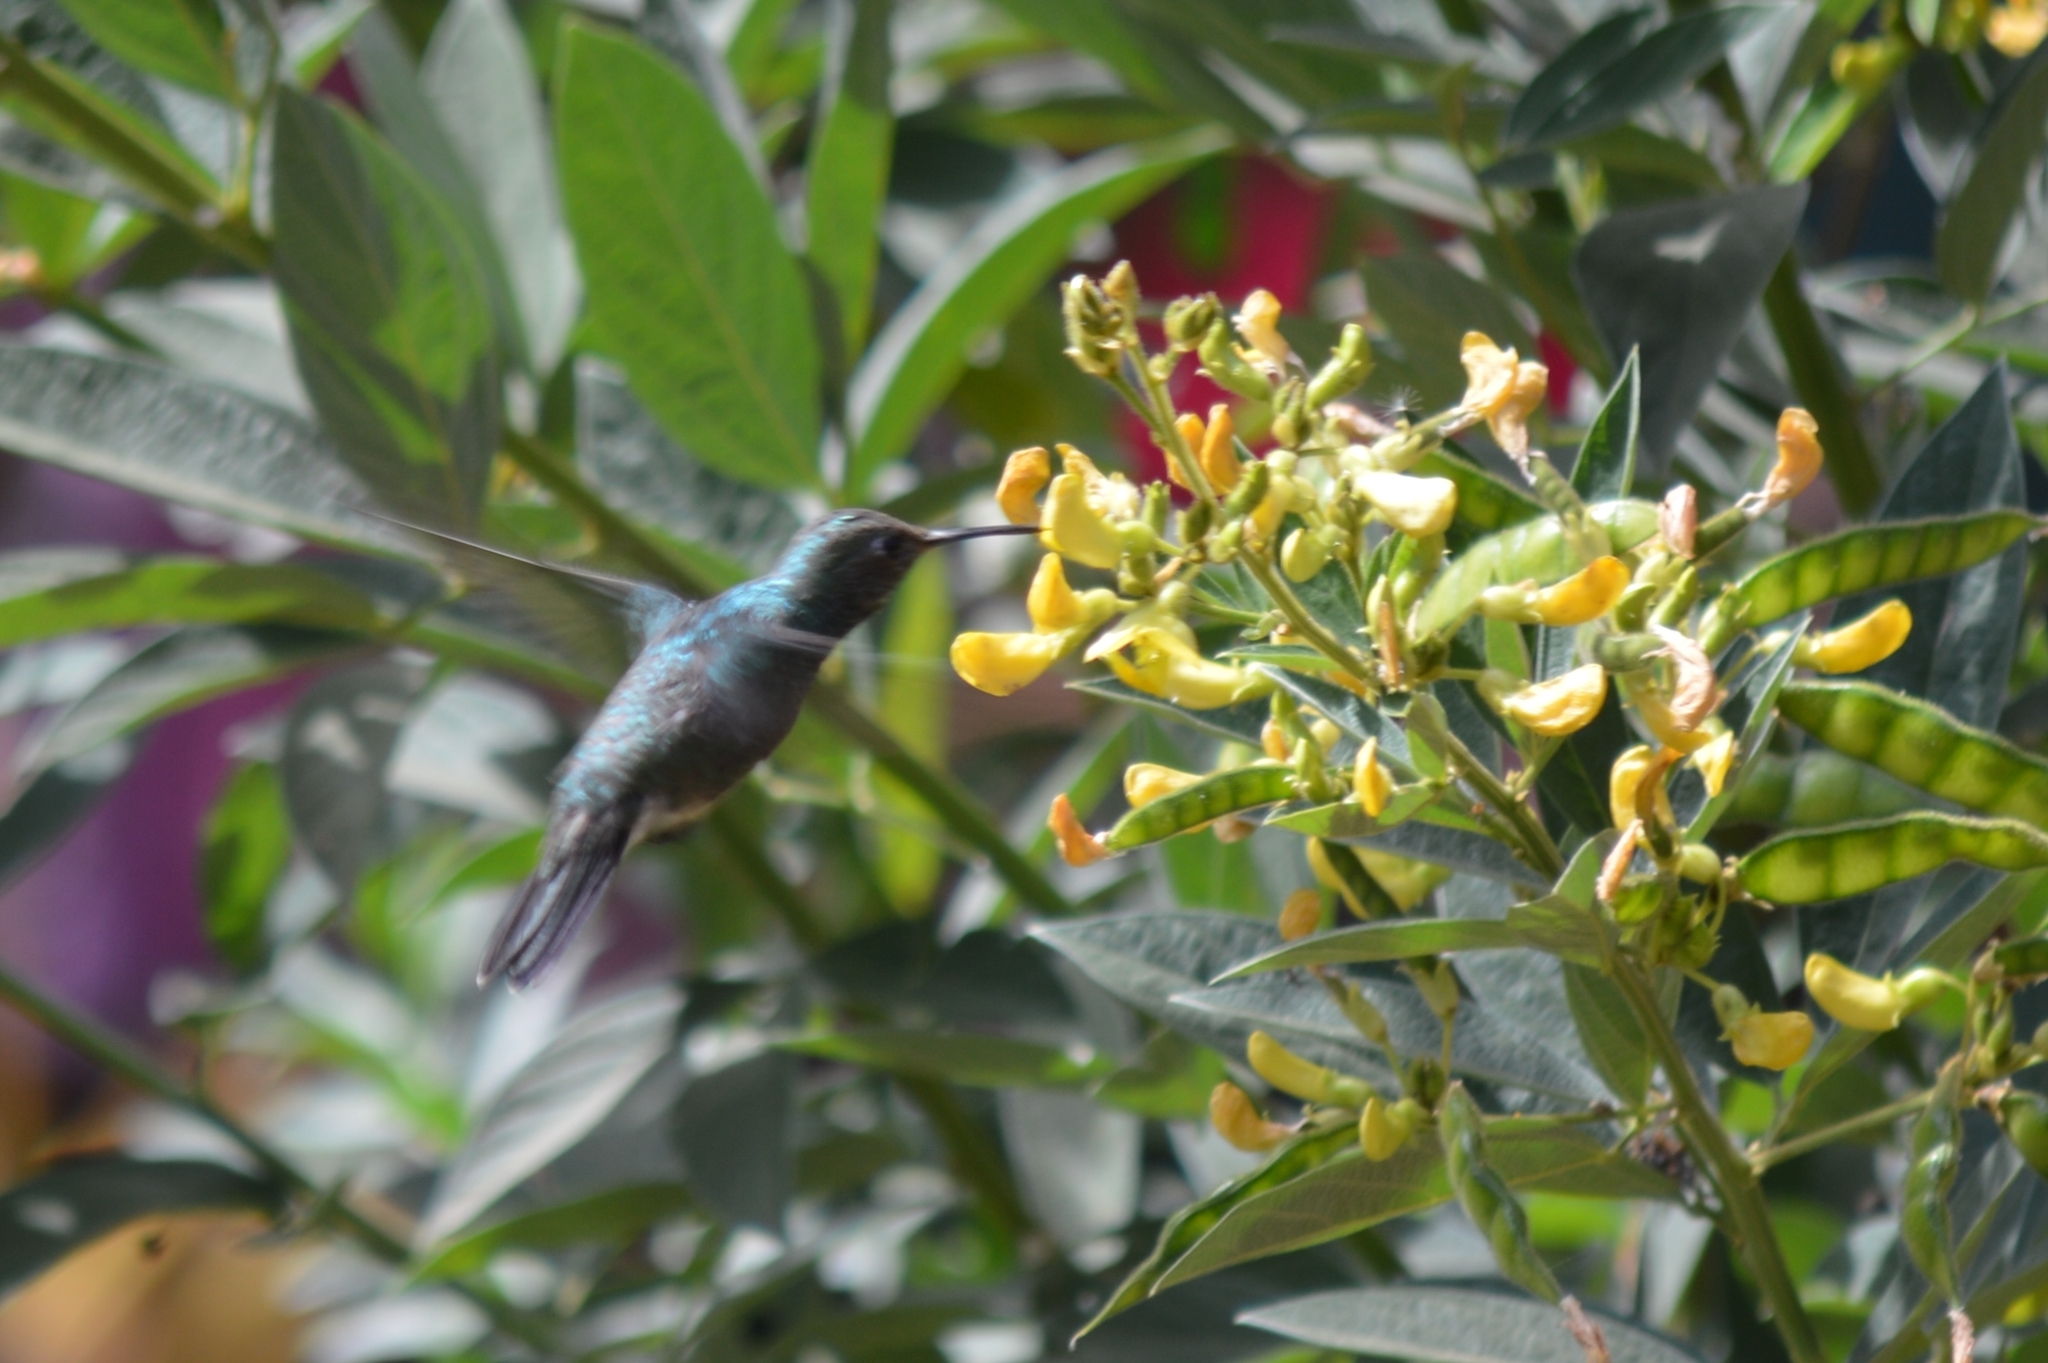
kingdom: Animalia
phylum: Chordata
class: Aves
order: Apodiformes
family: Trochilidae
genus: Chionomesa
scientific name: Chionomesa fimbriata
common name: Glittering-throated emerald
